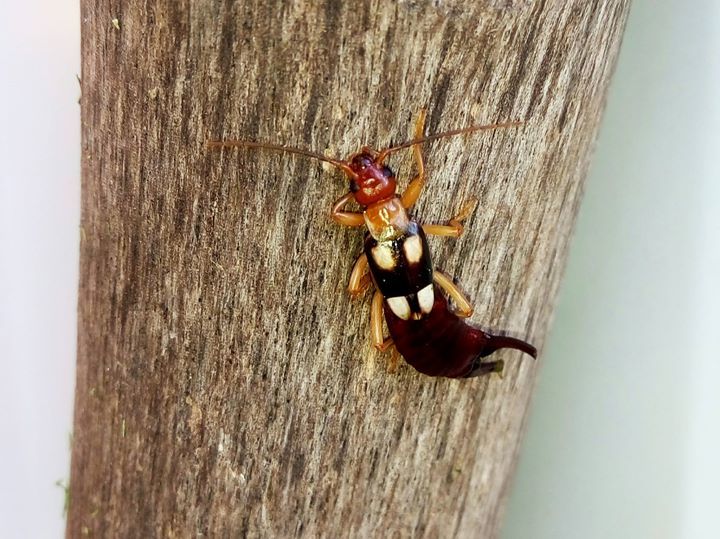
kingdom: Animalia
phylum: Arthropoda
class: Insecta
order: Dermaptera
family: Forficulidae
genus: Forficula
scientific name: Forficula smyrnensis
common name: Smyrna earwig
